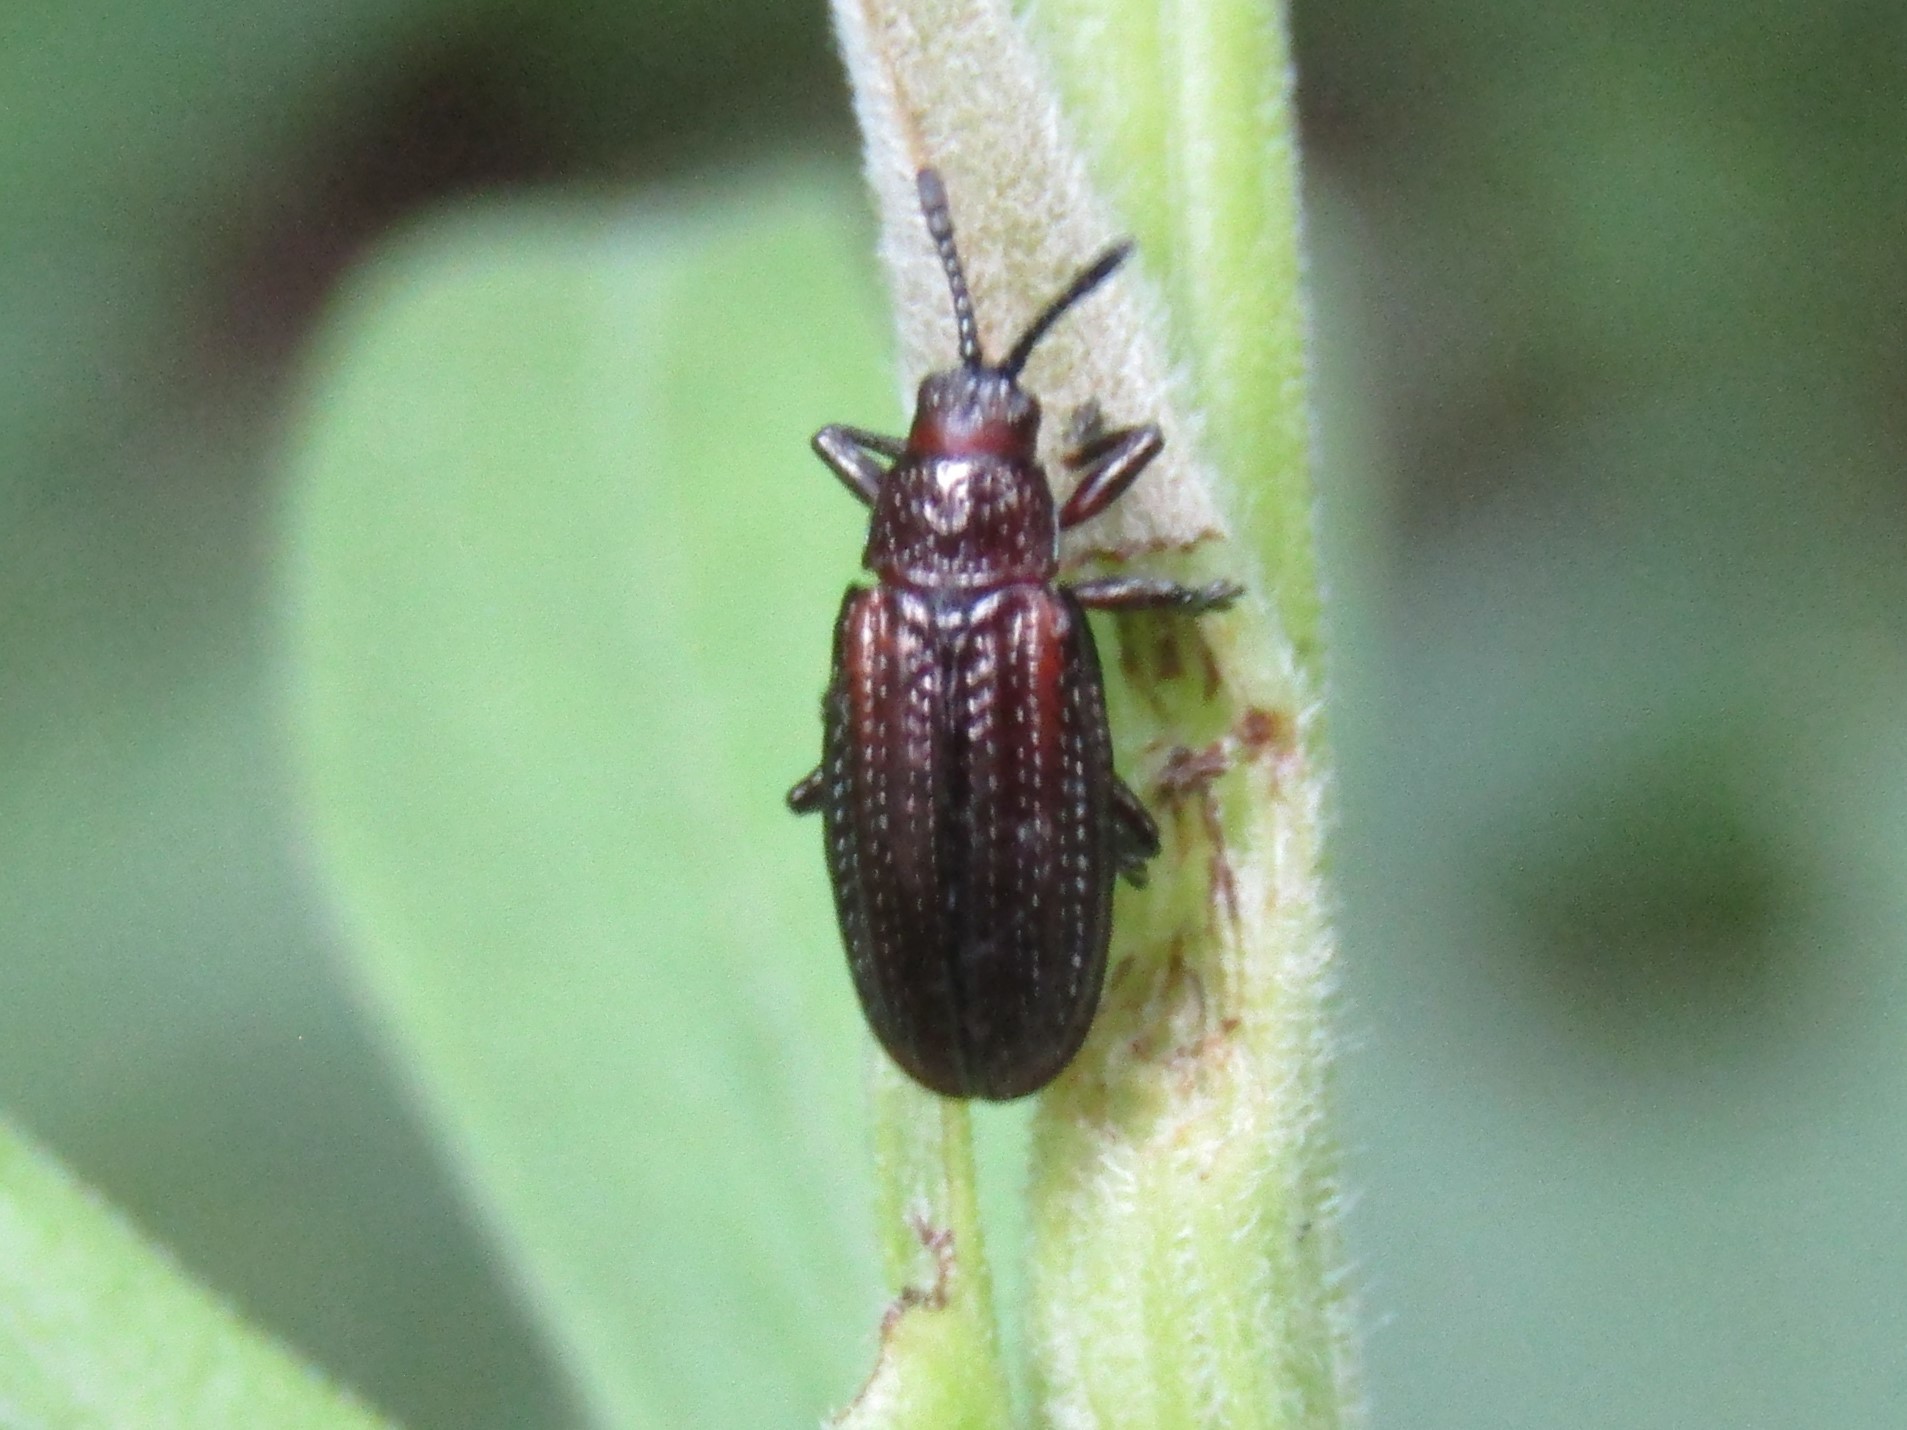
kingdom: Animalia
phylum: Arthropoda
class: Insecta
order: Coleoptera
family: Chrysomelidae
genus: Microrhopala
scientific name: Microrhopala vittata
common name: Goldenrod leaf miner beetle
